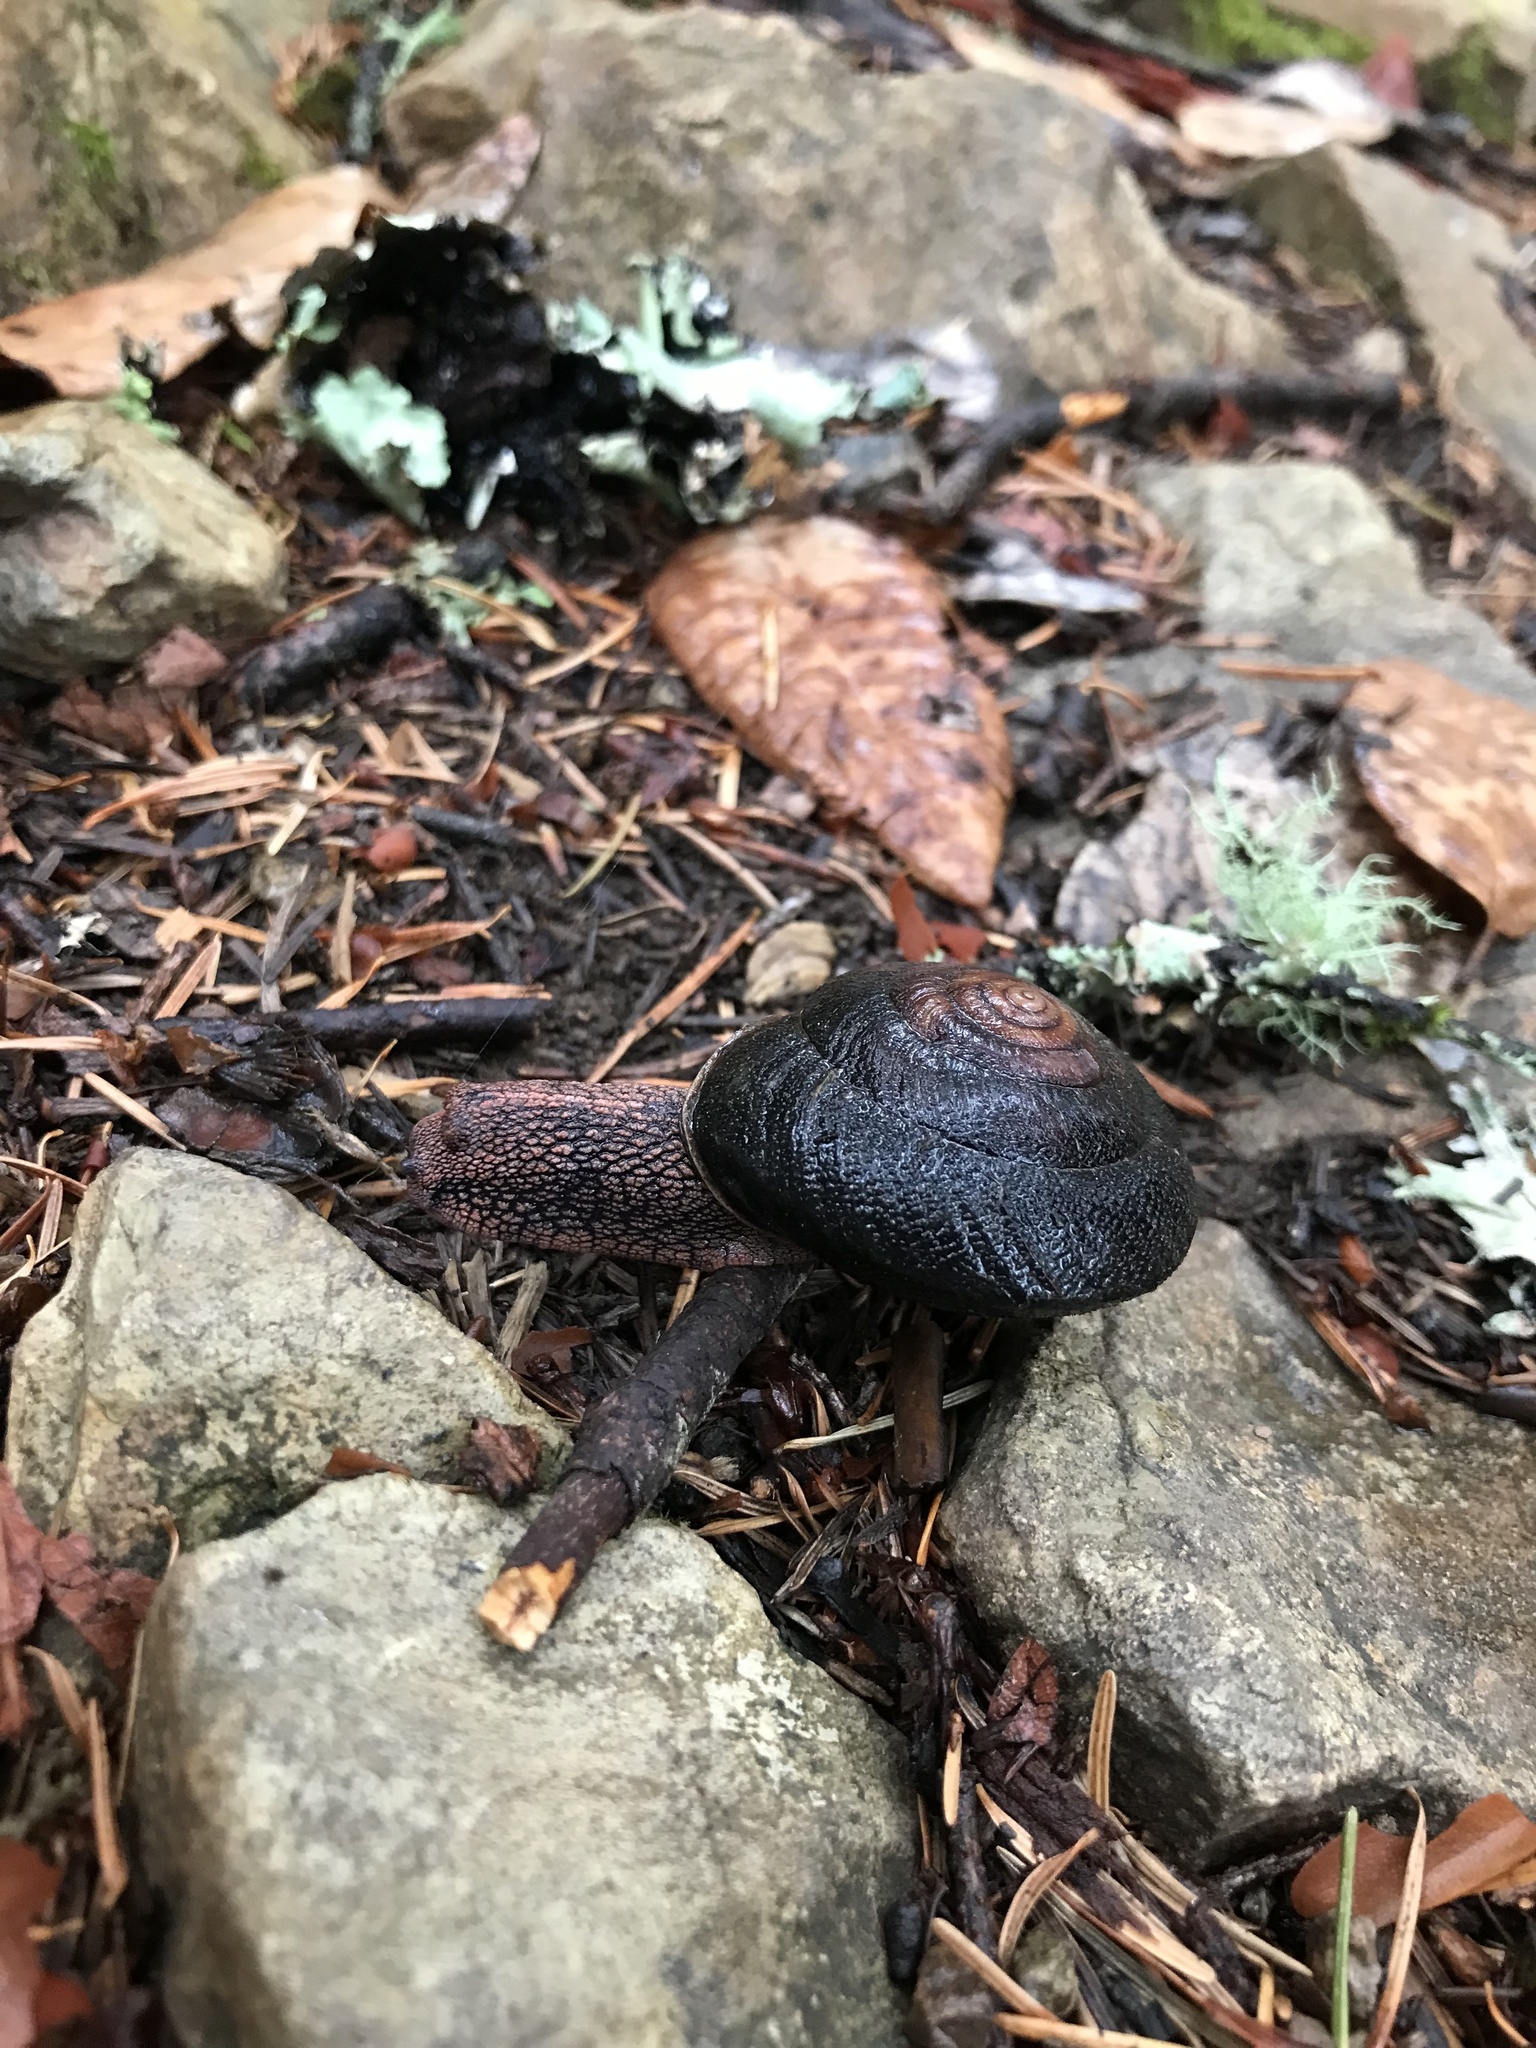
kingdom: Animalia
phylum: Mollusca
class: Gastropoda
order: Stylommatophora
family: Xanthonychidae
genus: Monadenia
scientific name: Monadenia infumata
